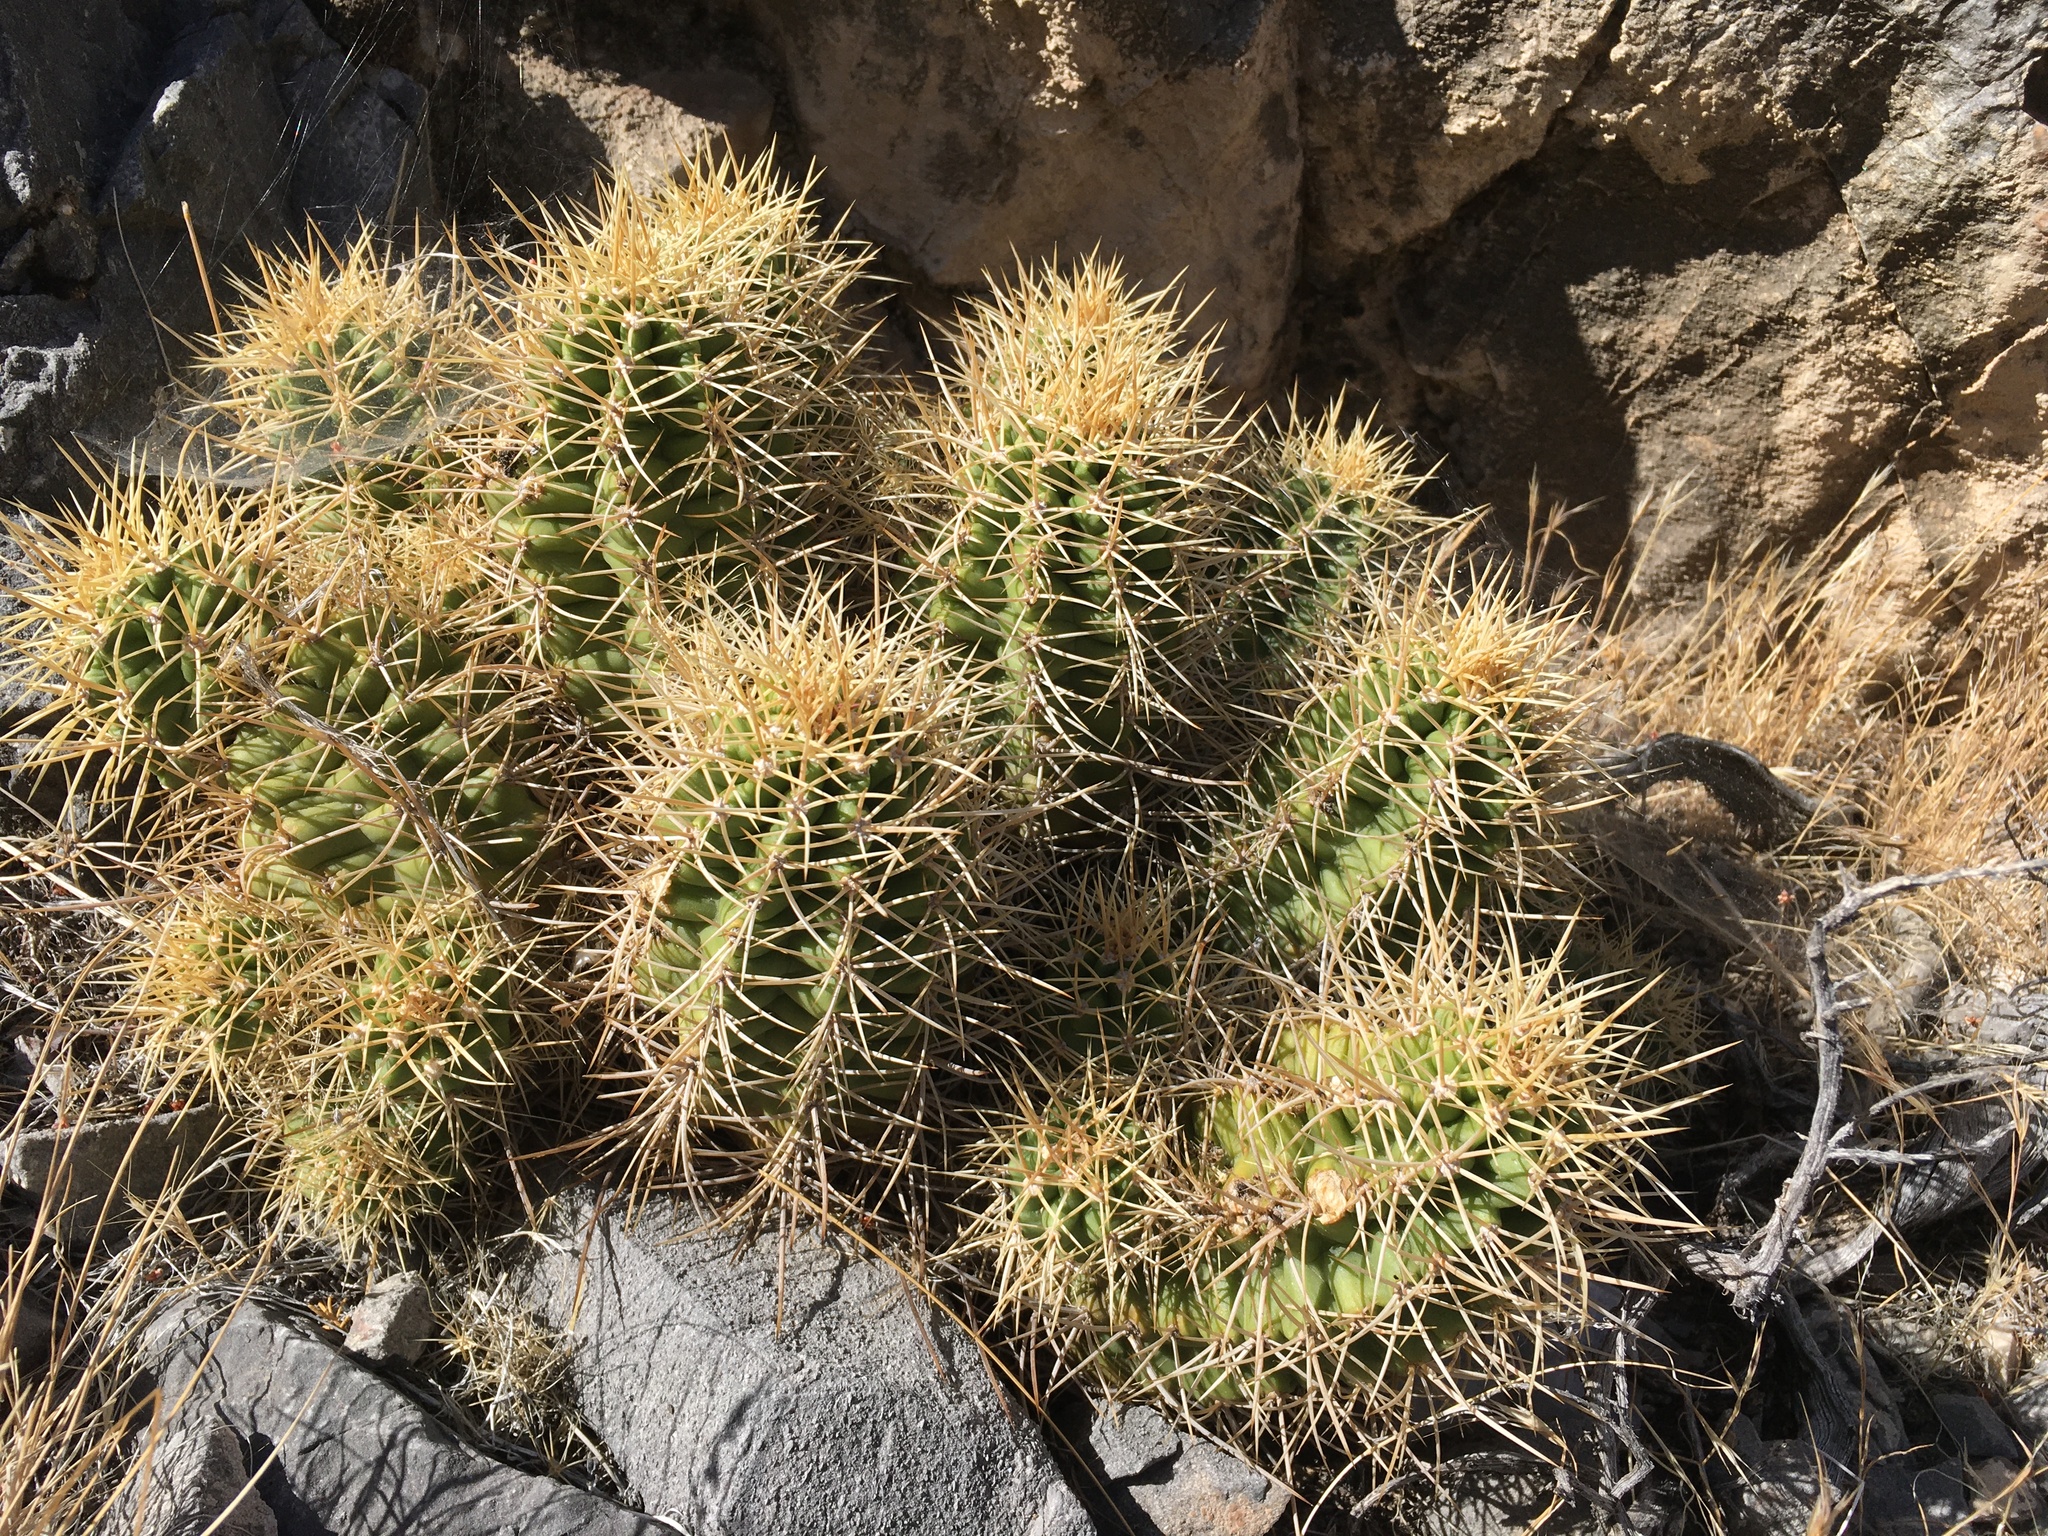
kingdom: Plantae
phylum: Tracheophyta
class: Magnoliopsida
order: Caryophyllales
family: Cactaceae
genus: Echinocereus
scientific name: Echinocereus triglochidiatus
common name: Claretcup hedgehog
